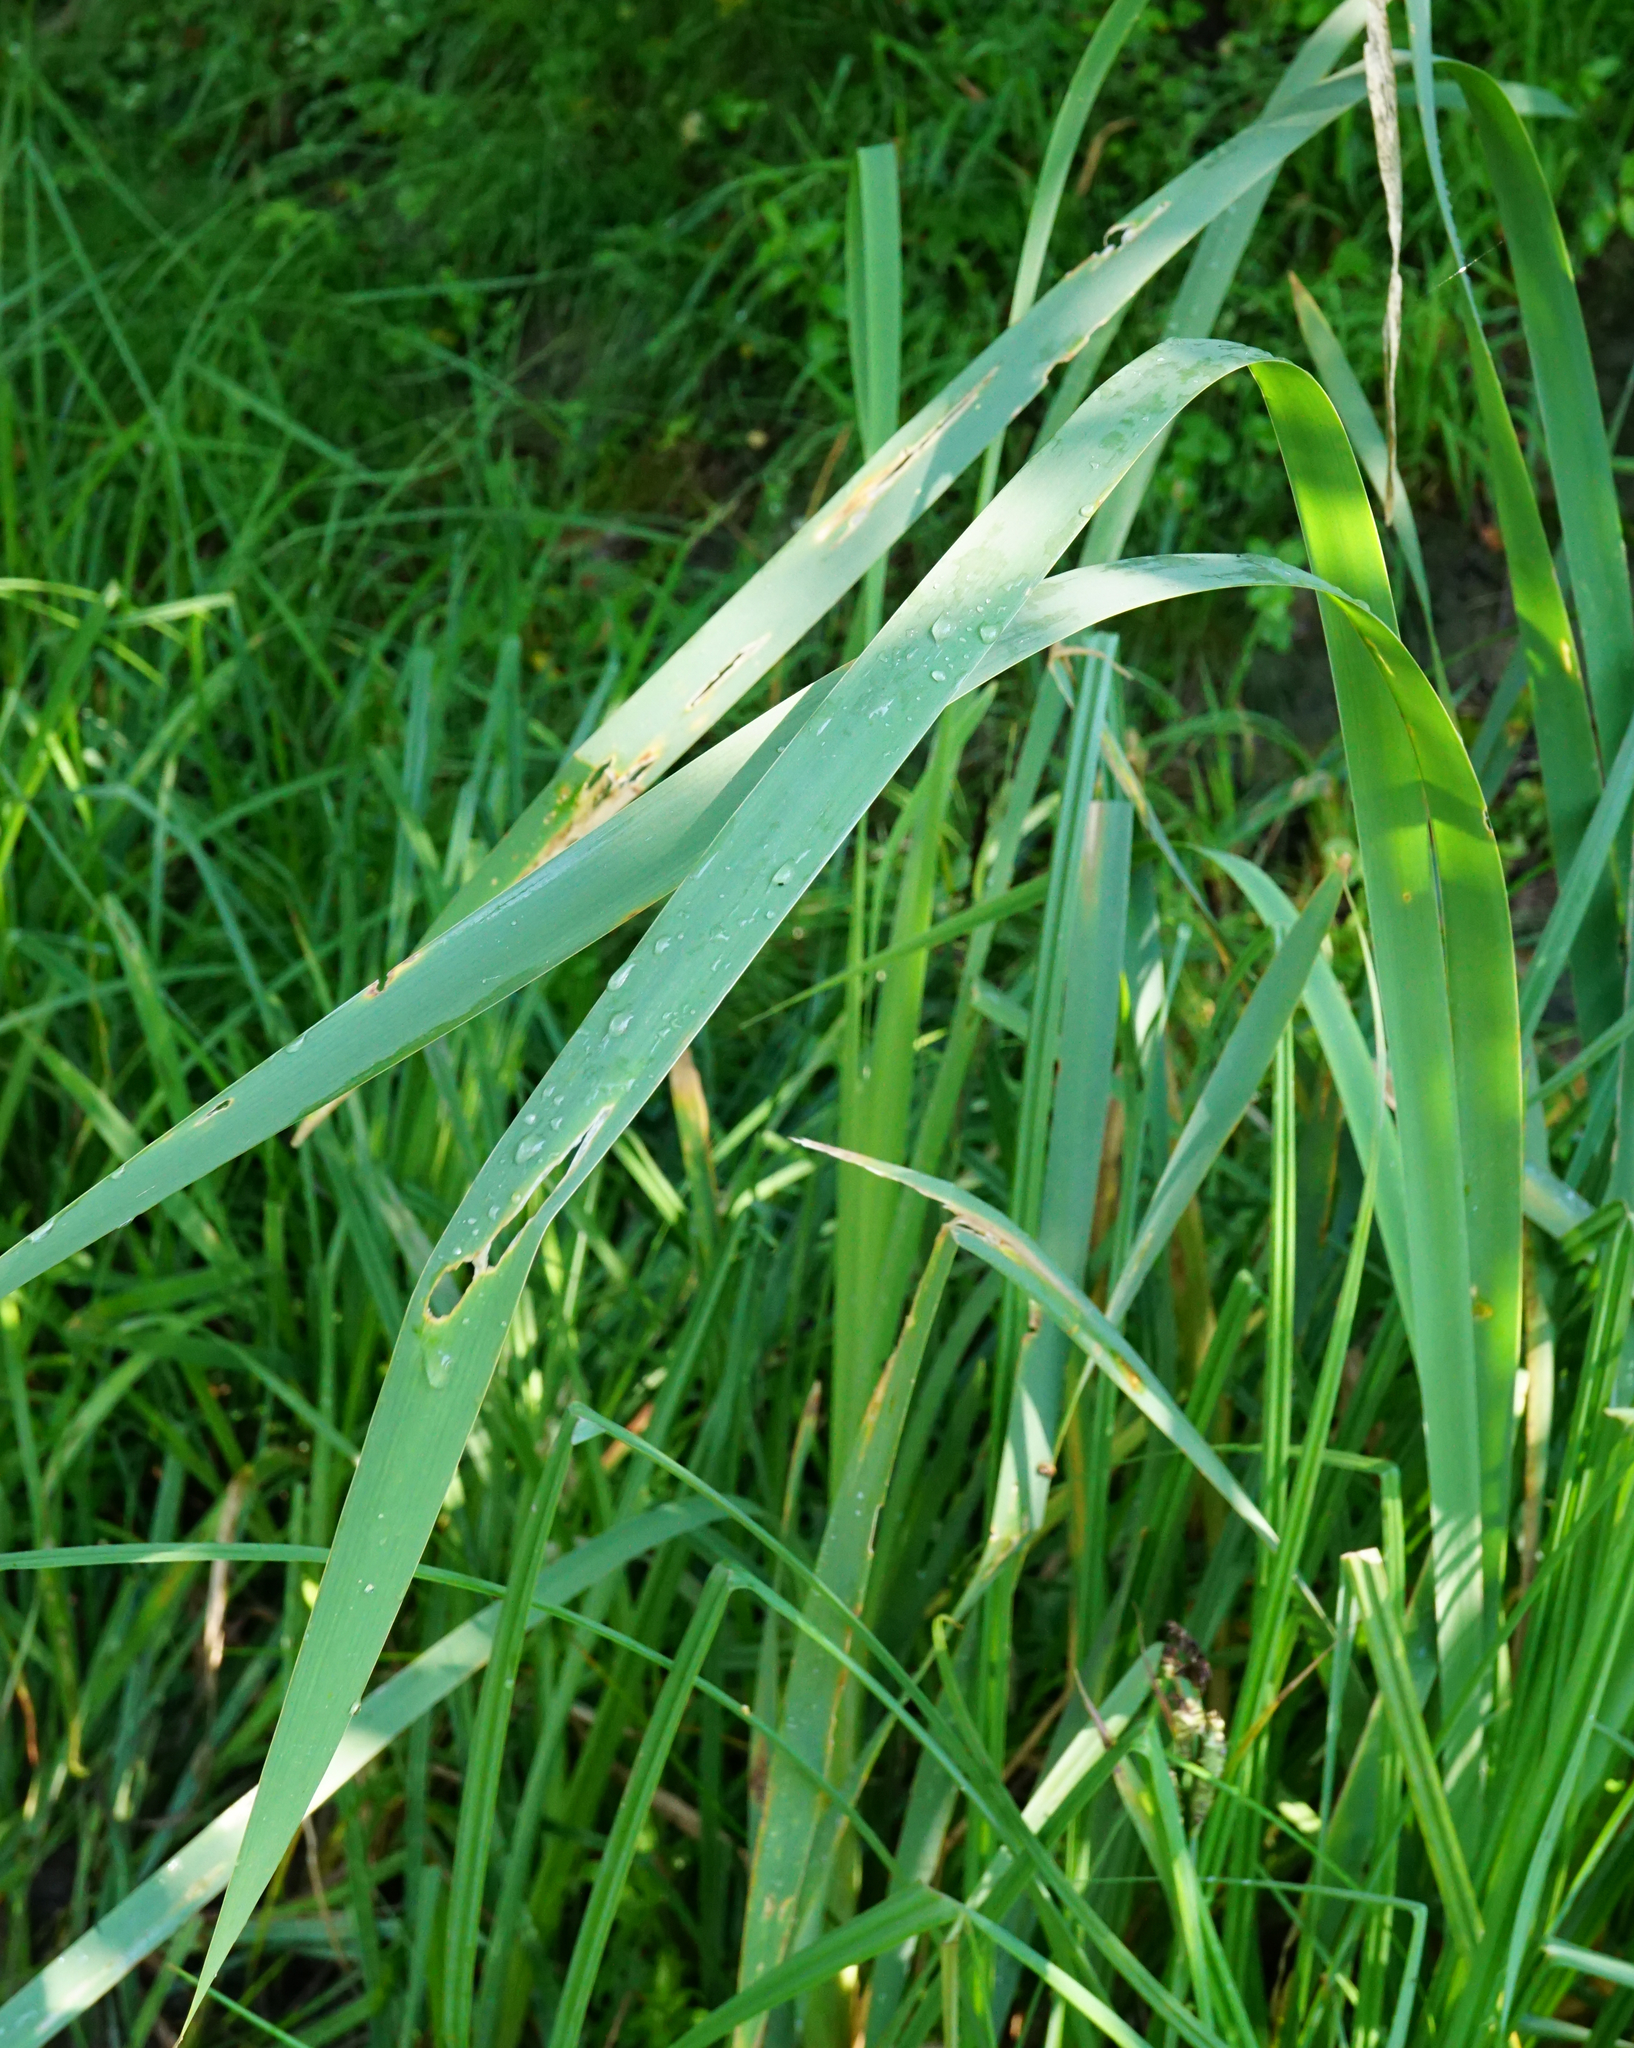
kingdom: Plantae
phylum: Tracheophyta
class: Liliopsida
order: Poales
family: Typhaceae
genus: Typha
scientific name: Typha latifolia
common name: Broadleaf cattail
